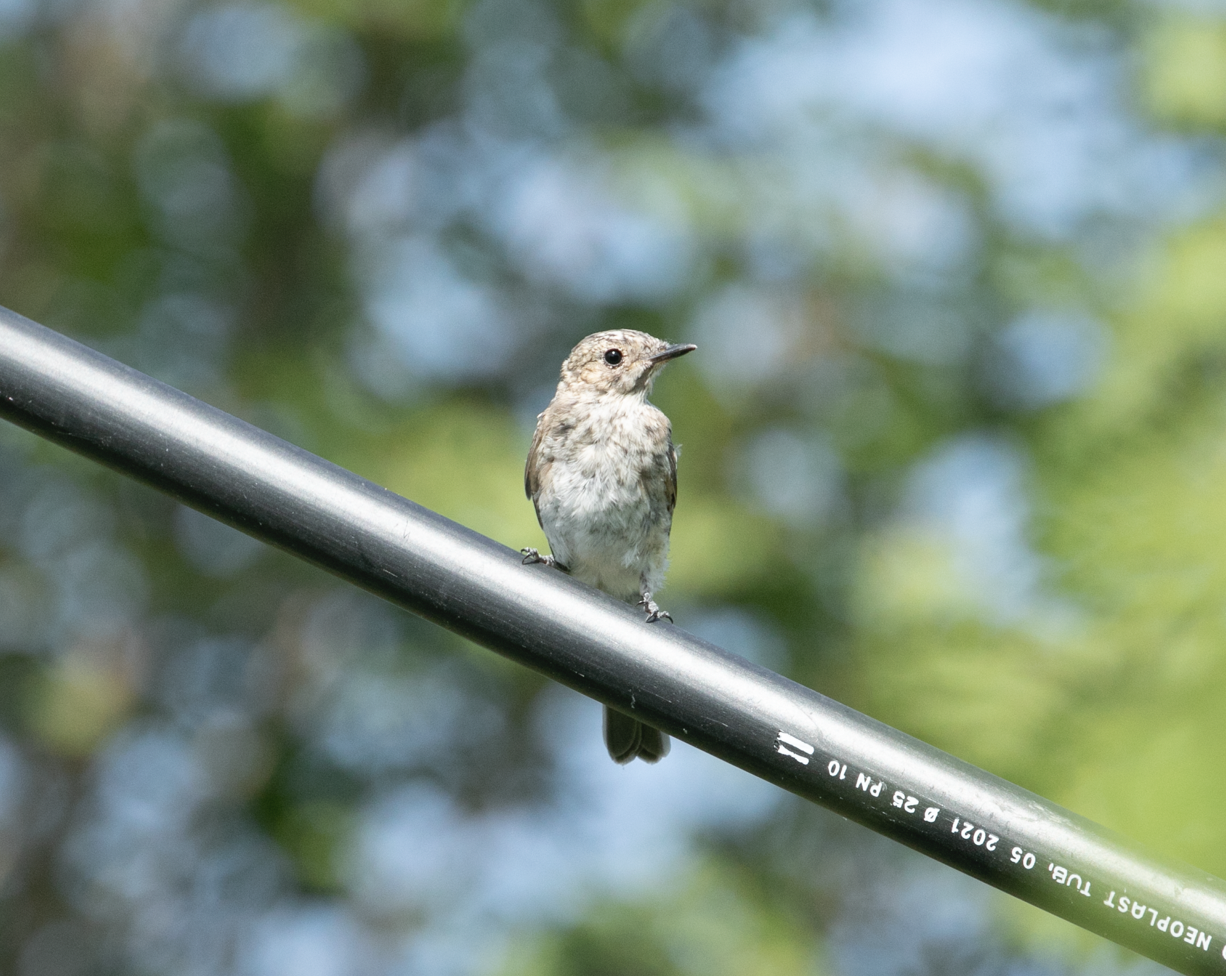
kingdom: Animalia
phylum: Chordata
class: Aves
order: Passeriformes
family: Muscicapidae
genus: Muscicapa
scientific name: Muscicapa striata
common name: Spotted flycatcher
